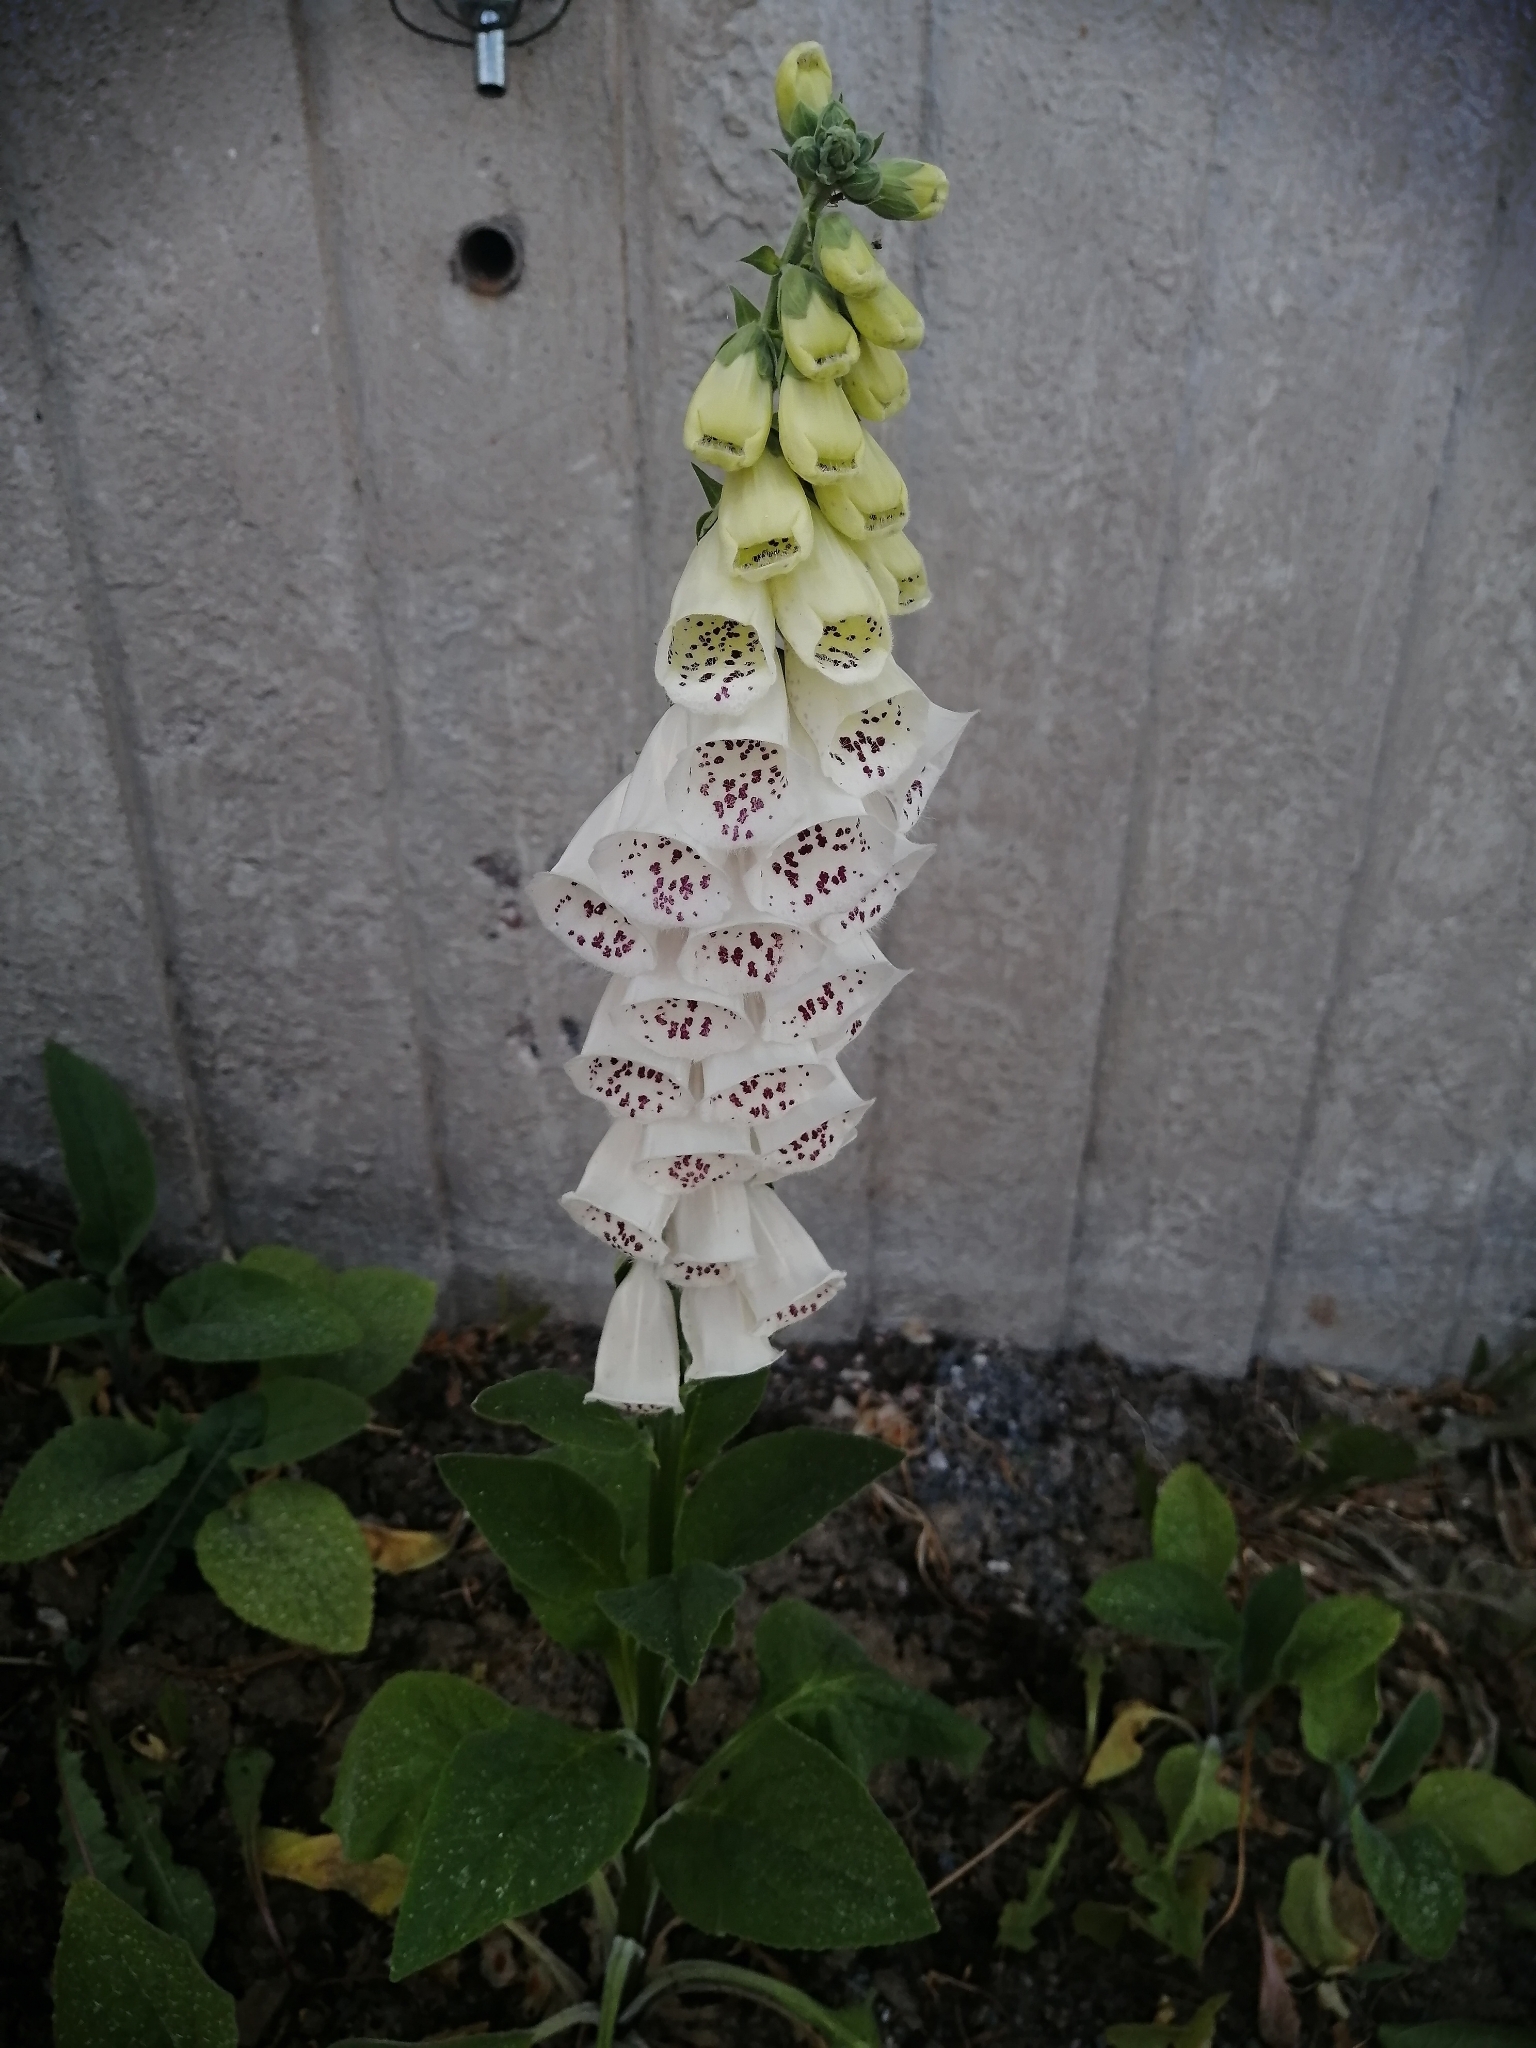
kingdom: Plantae
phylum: Tracheophyta
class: Magnoliopsida
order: Lamiales
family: Plantaginaceae
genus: Digitalis
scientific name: Digitalis purpurea
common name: Foxglove
